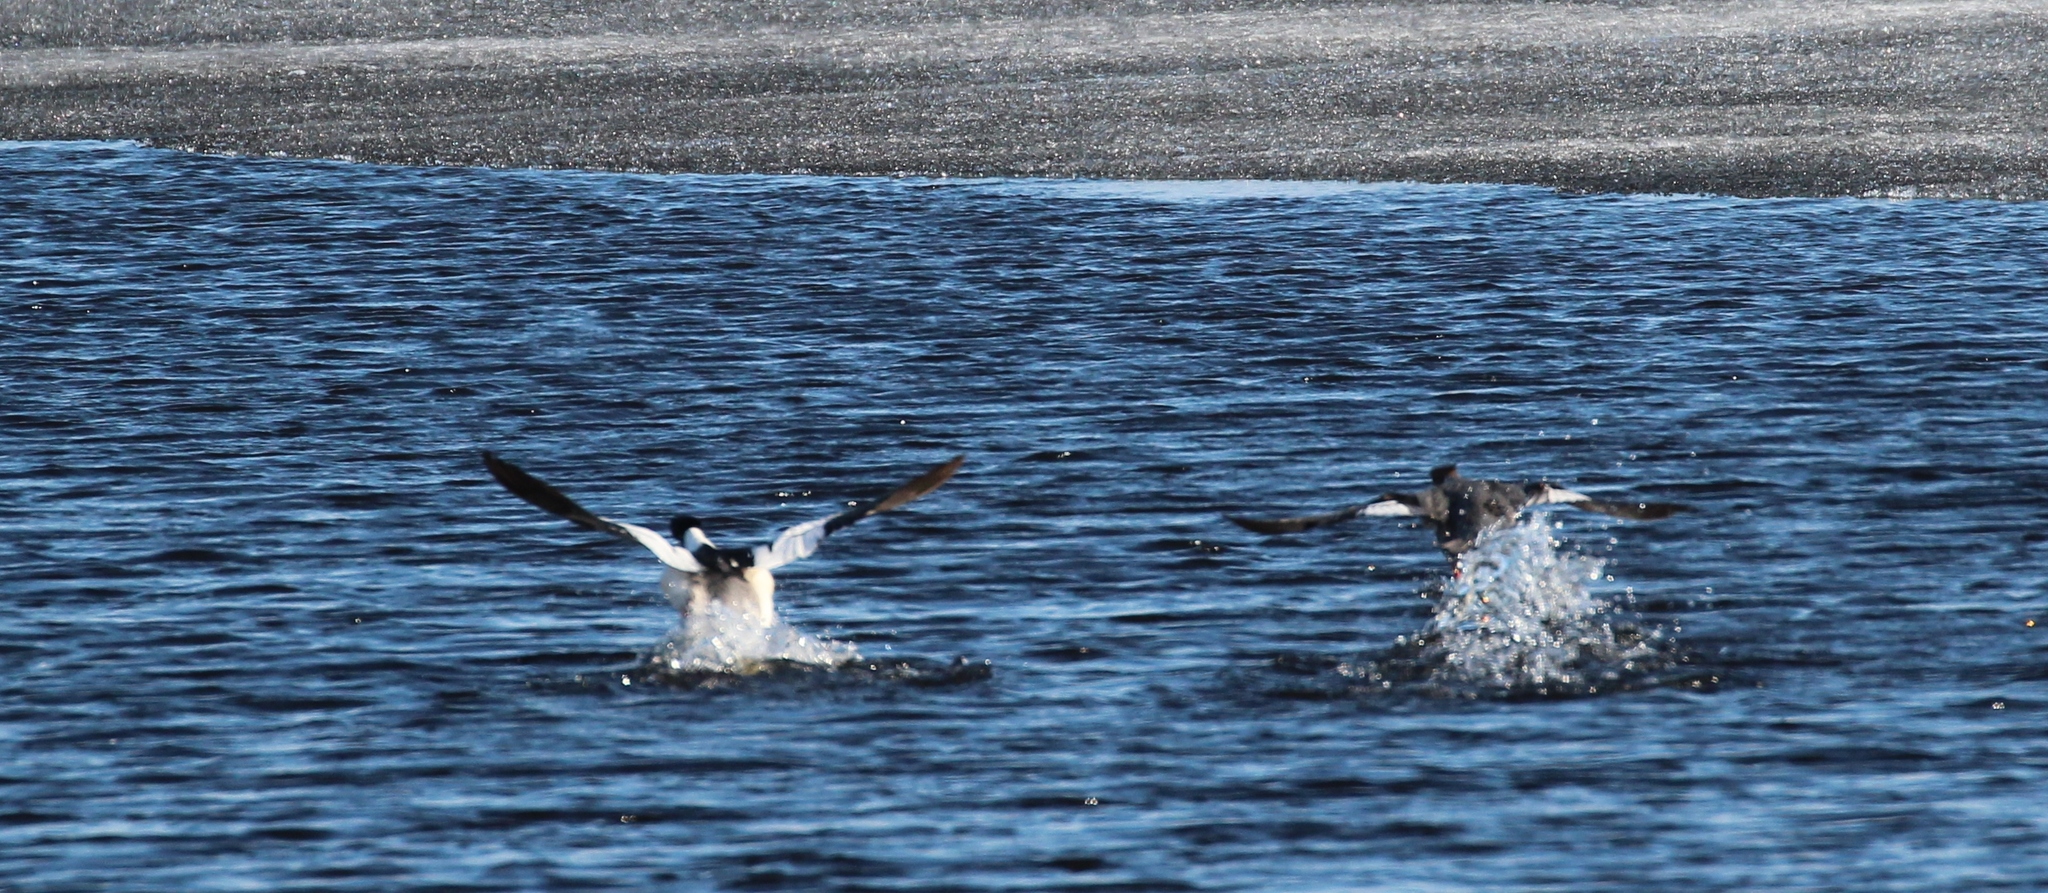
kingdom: Animalia
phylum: Chordata
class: Aves
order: Anseriformes
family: Anatidae
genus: Mergus
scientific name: Mergus merganser
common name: Common merganser
